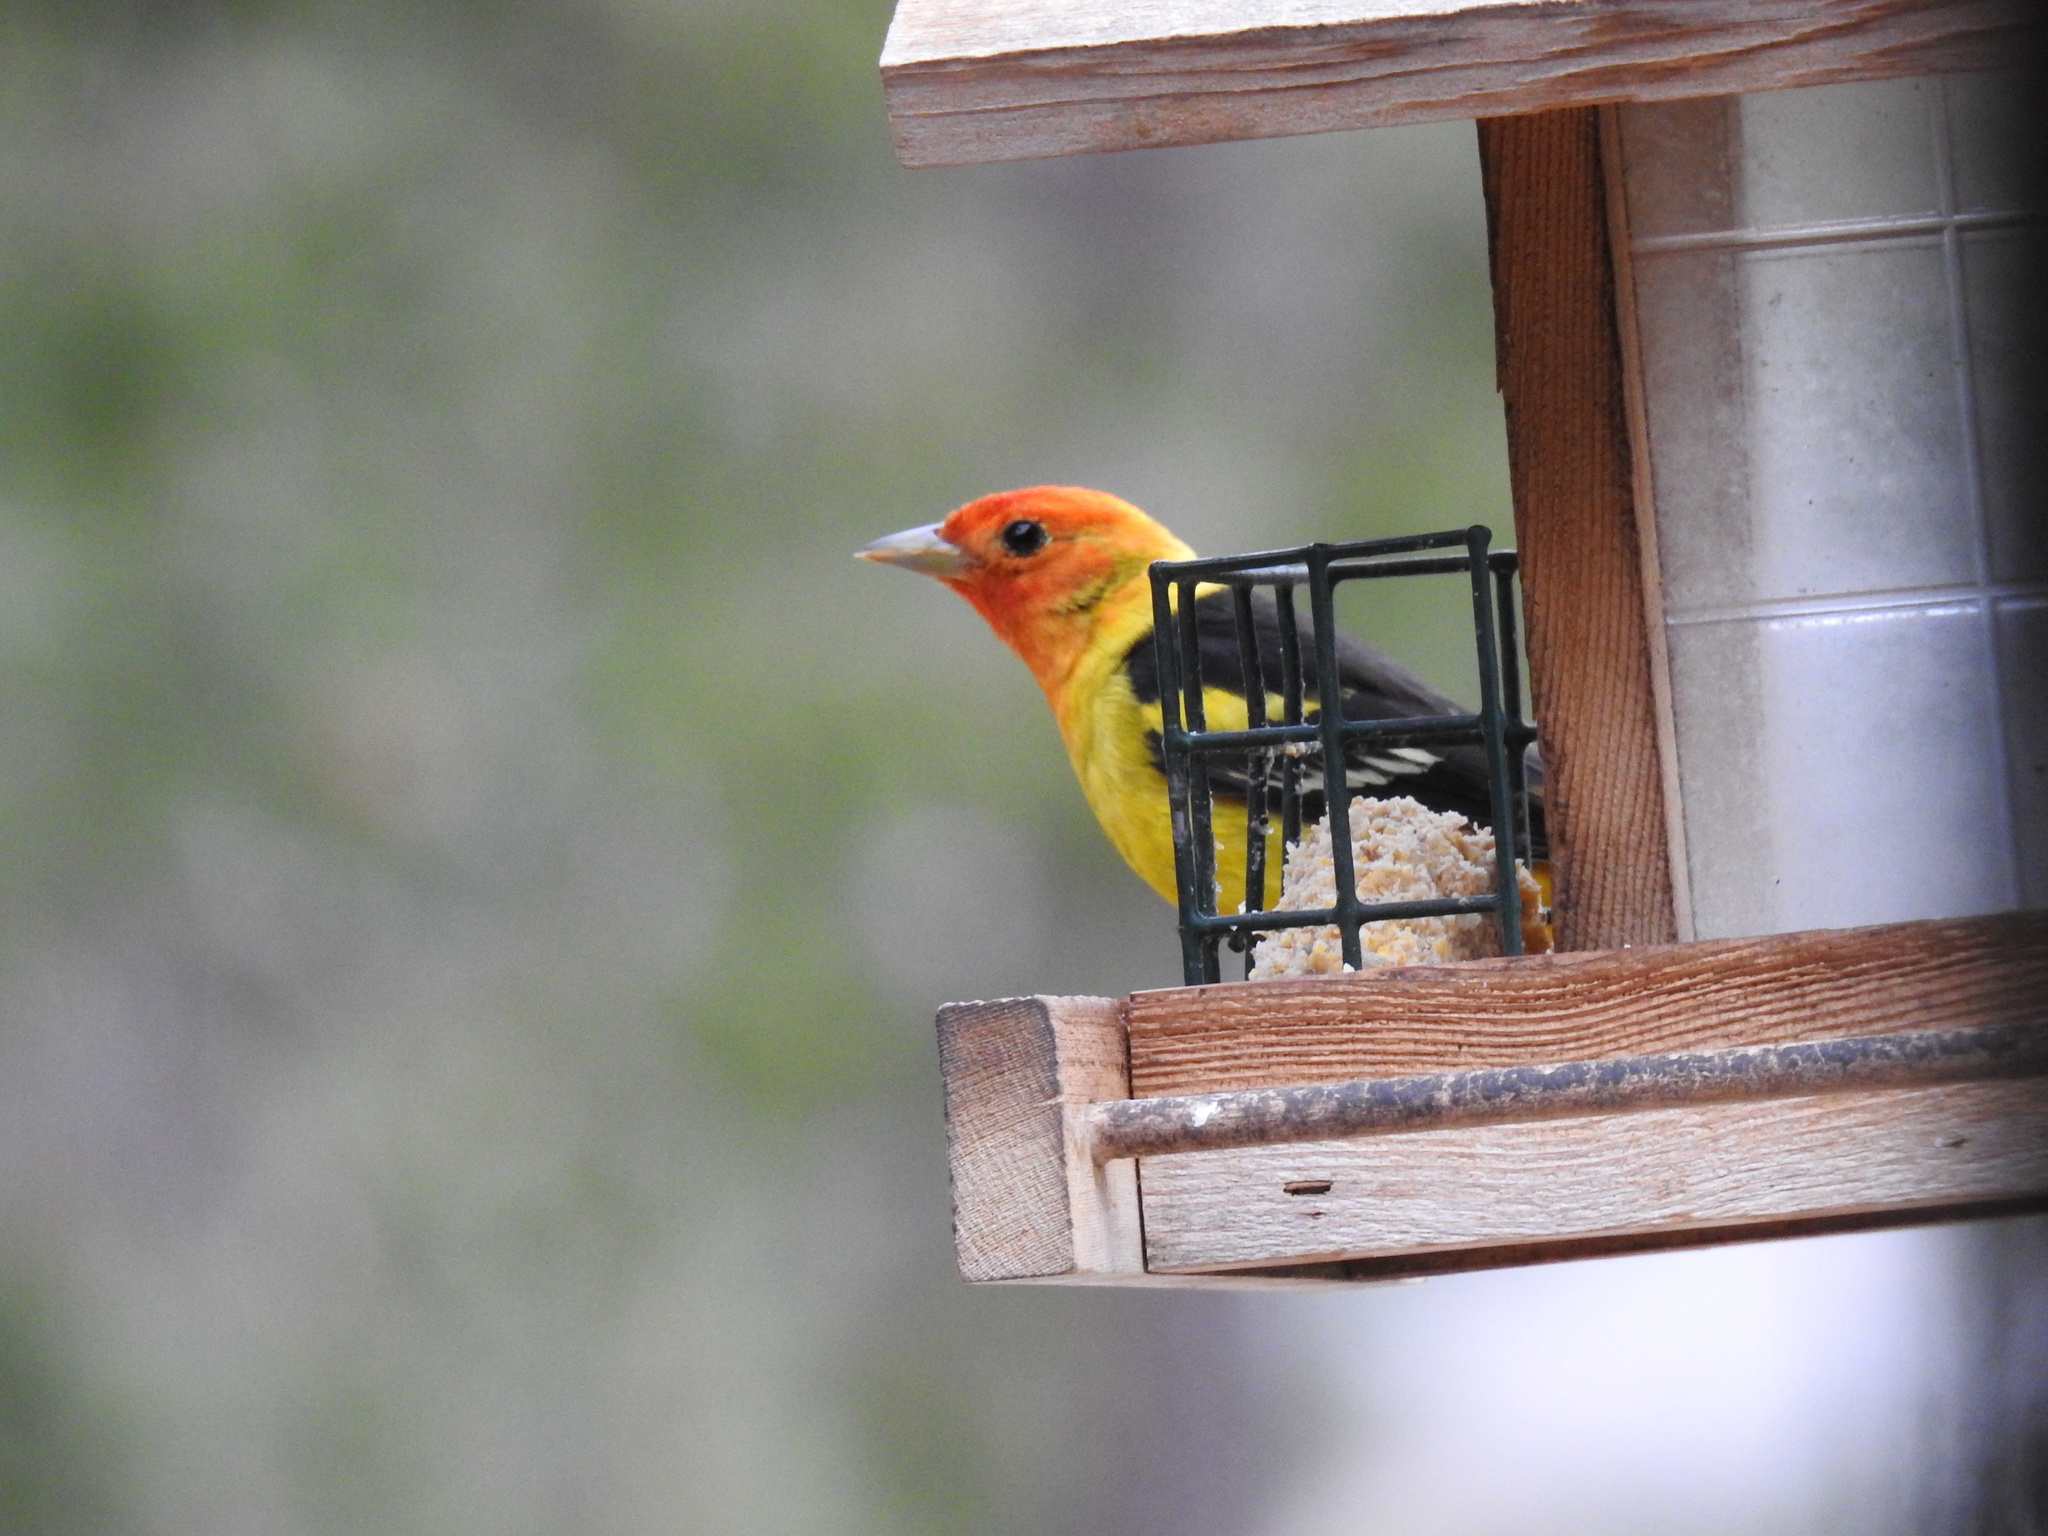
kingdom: Animalia
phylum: Chordata
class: Aves
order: Passeriformes
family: Cardinalidae
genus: Piranga
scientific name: Piranga ludoviciana
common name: Western tanager
